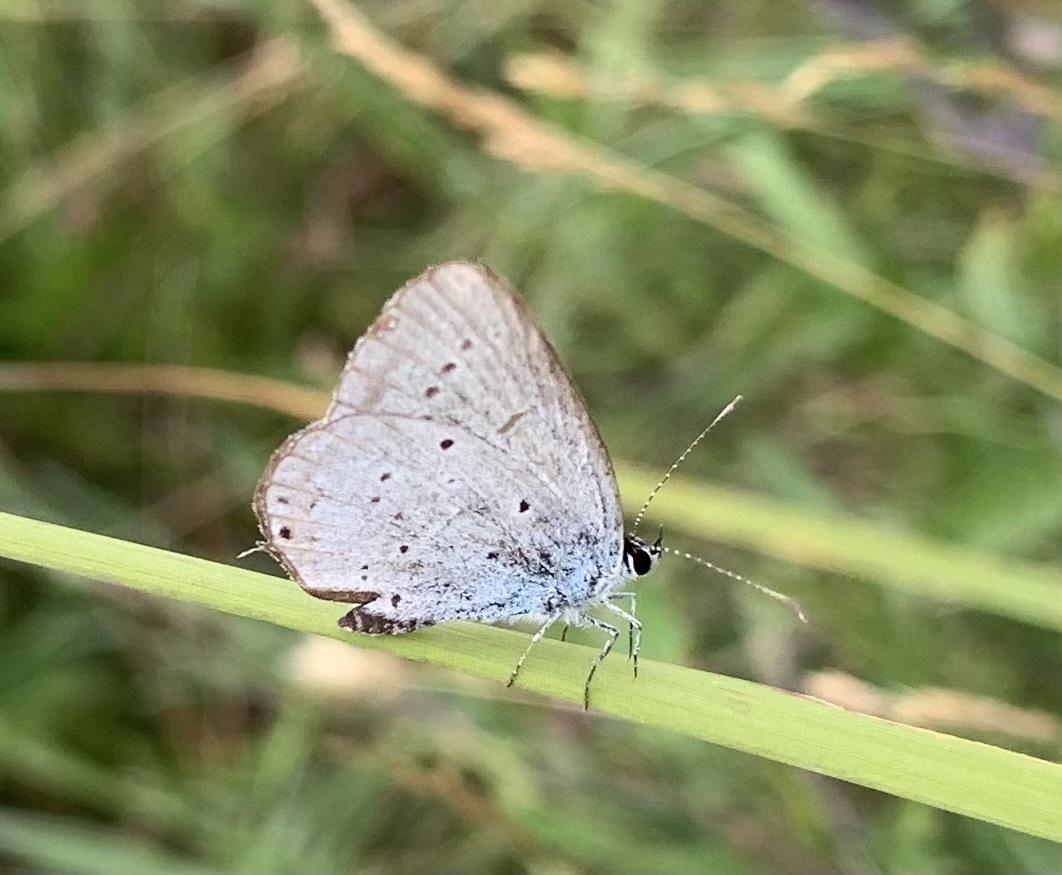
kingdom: Animalia
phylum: Arthropoda
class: Insecta
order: Lepidoptera
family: Lycaenidae
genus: Elkalyce
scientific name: Elkalyce argiades
